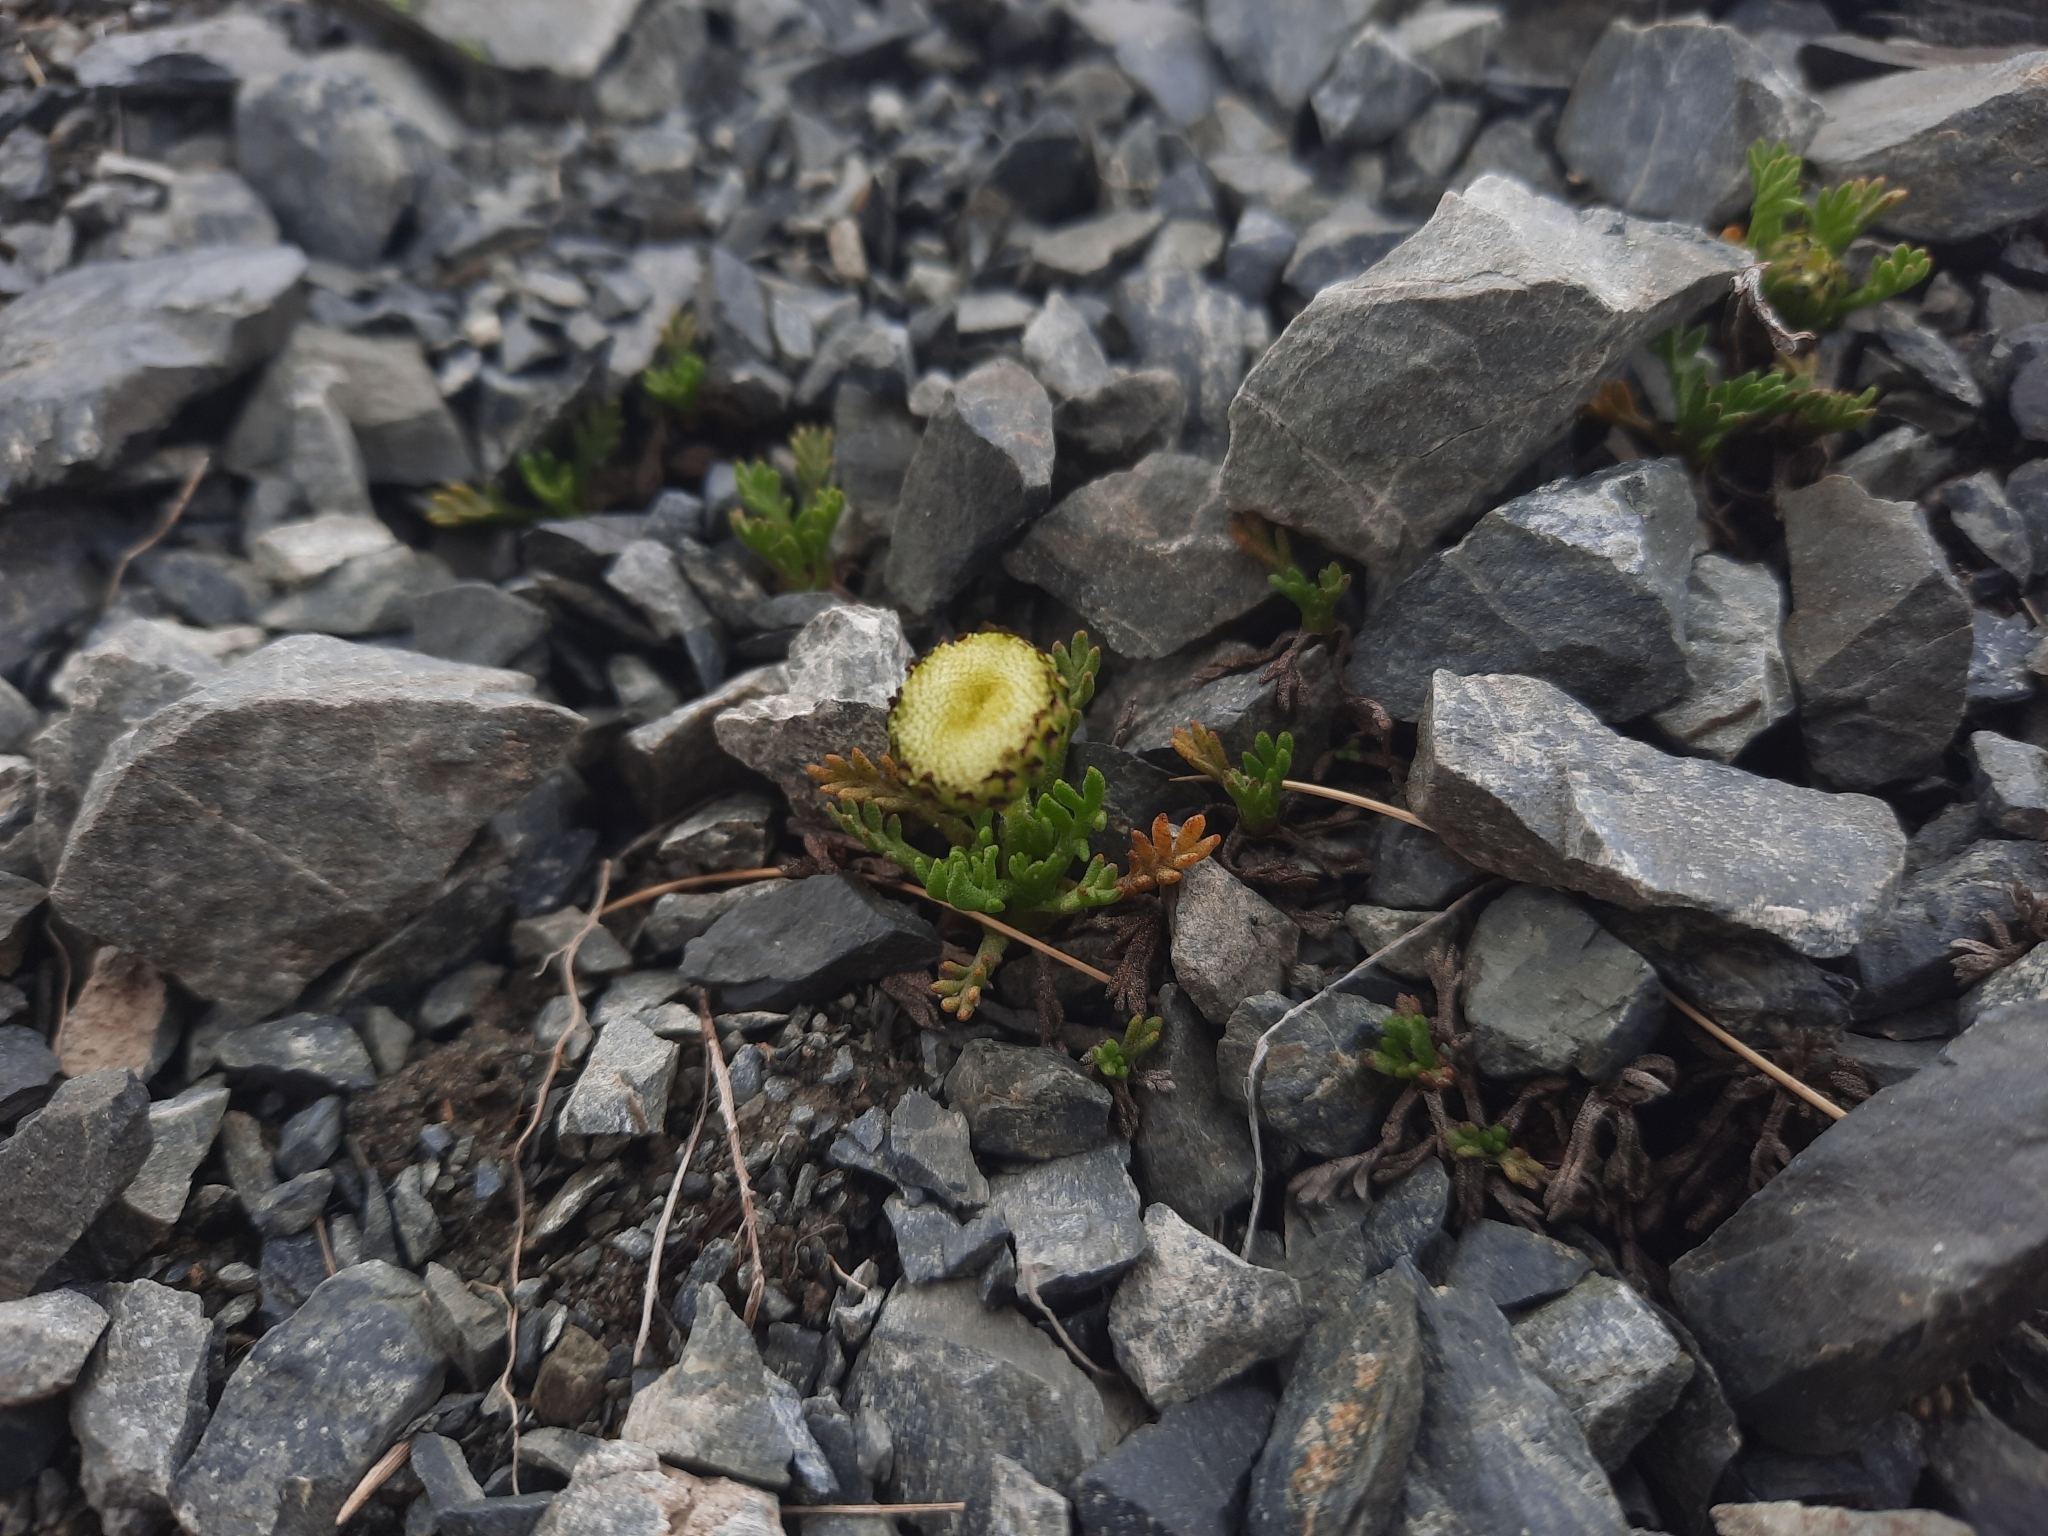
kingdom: Plantae
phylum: Tracheophyta
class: Magnoliopsida
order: Asterales
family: Asteraceae
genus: Leptinella
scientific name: Leptinella pyrethrifolia
